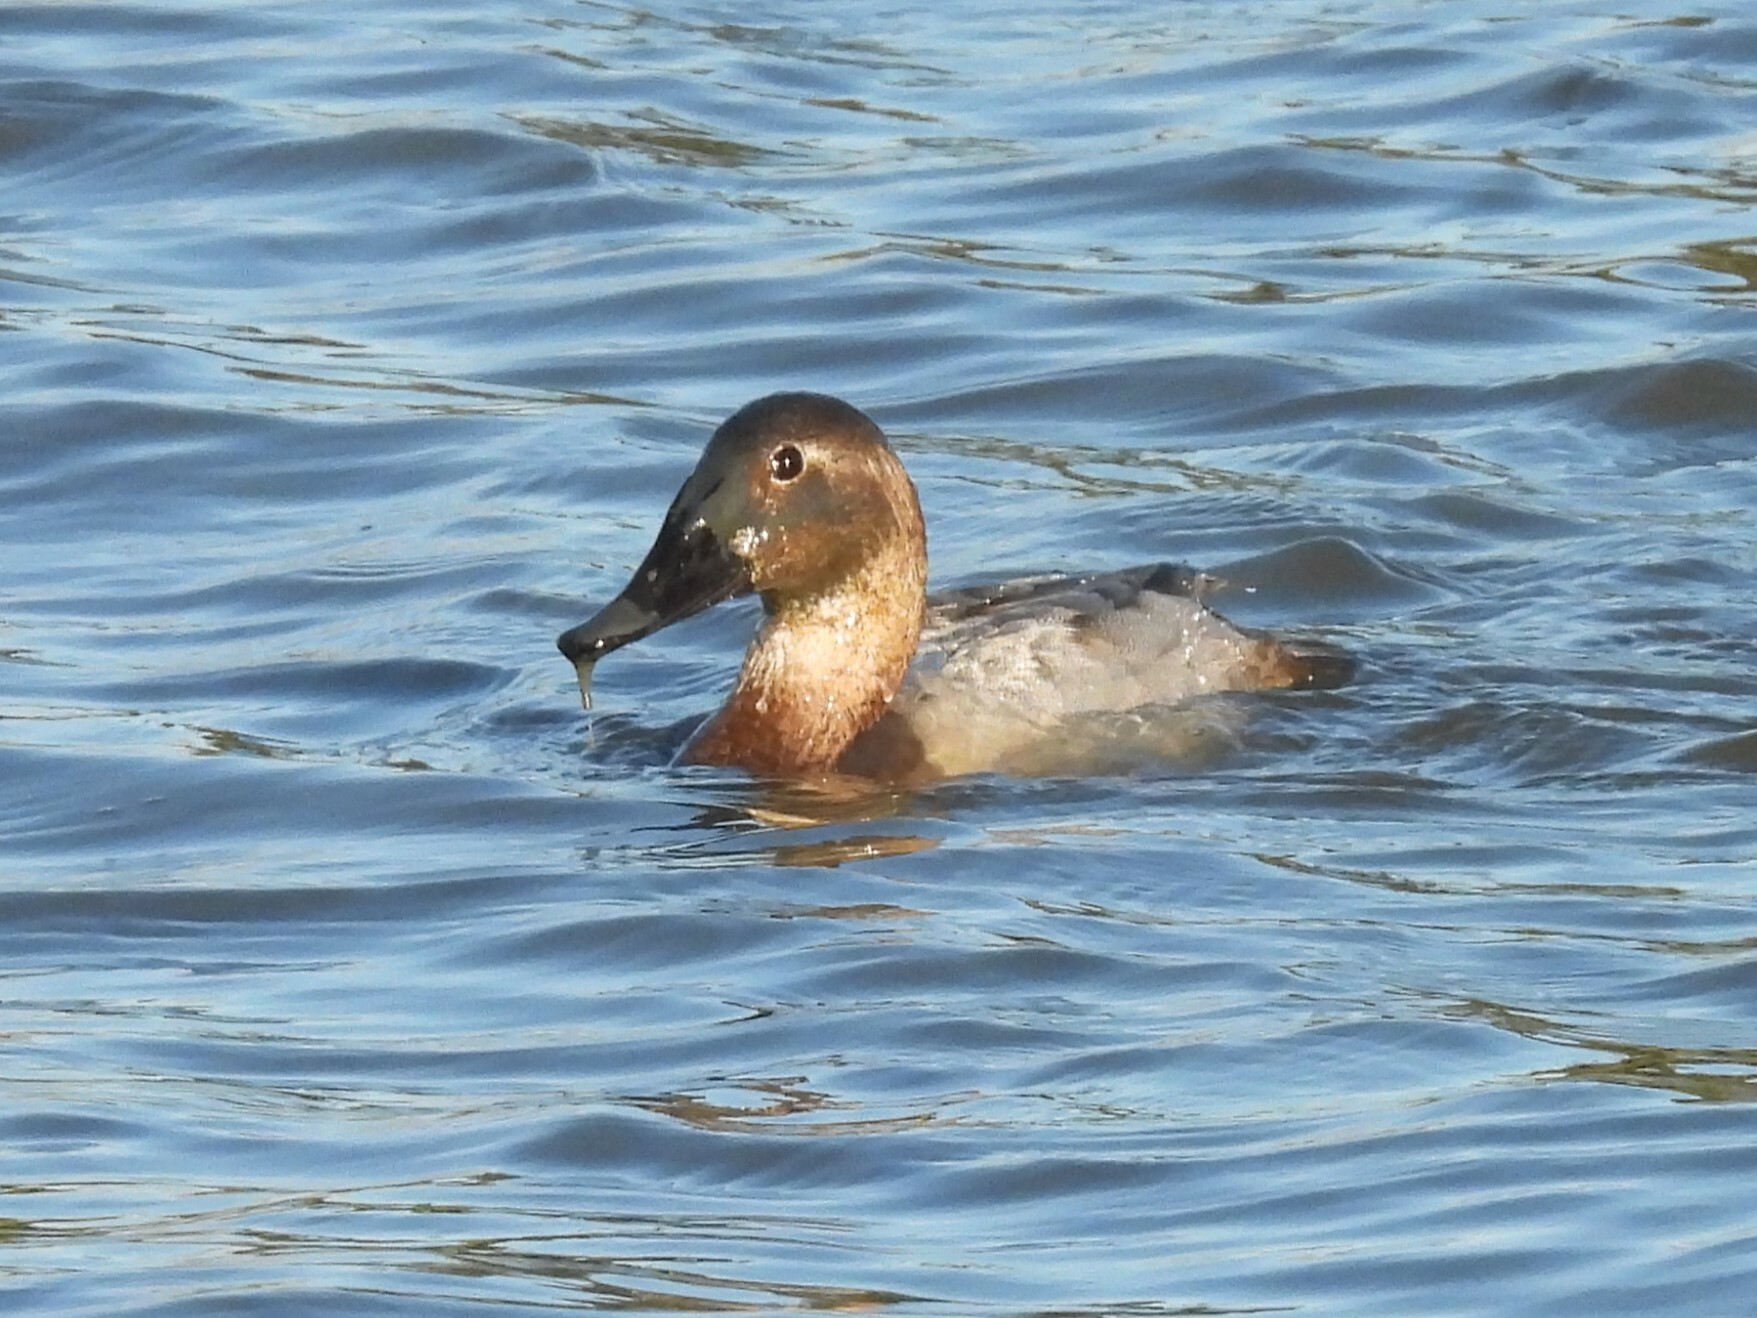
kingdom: Animalia
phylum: Chordata
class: Aves
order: Anseriformes
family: Anatidae
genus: Aythya
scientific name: Aythya valisineria
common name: Canvasback
